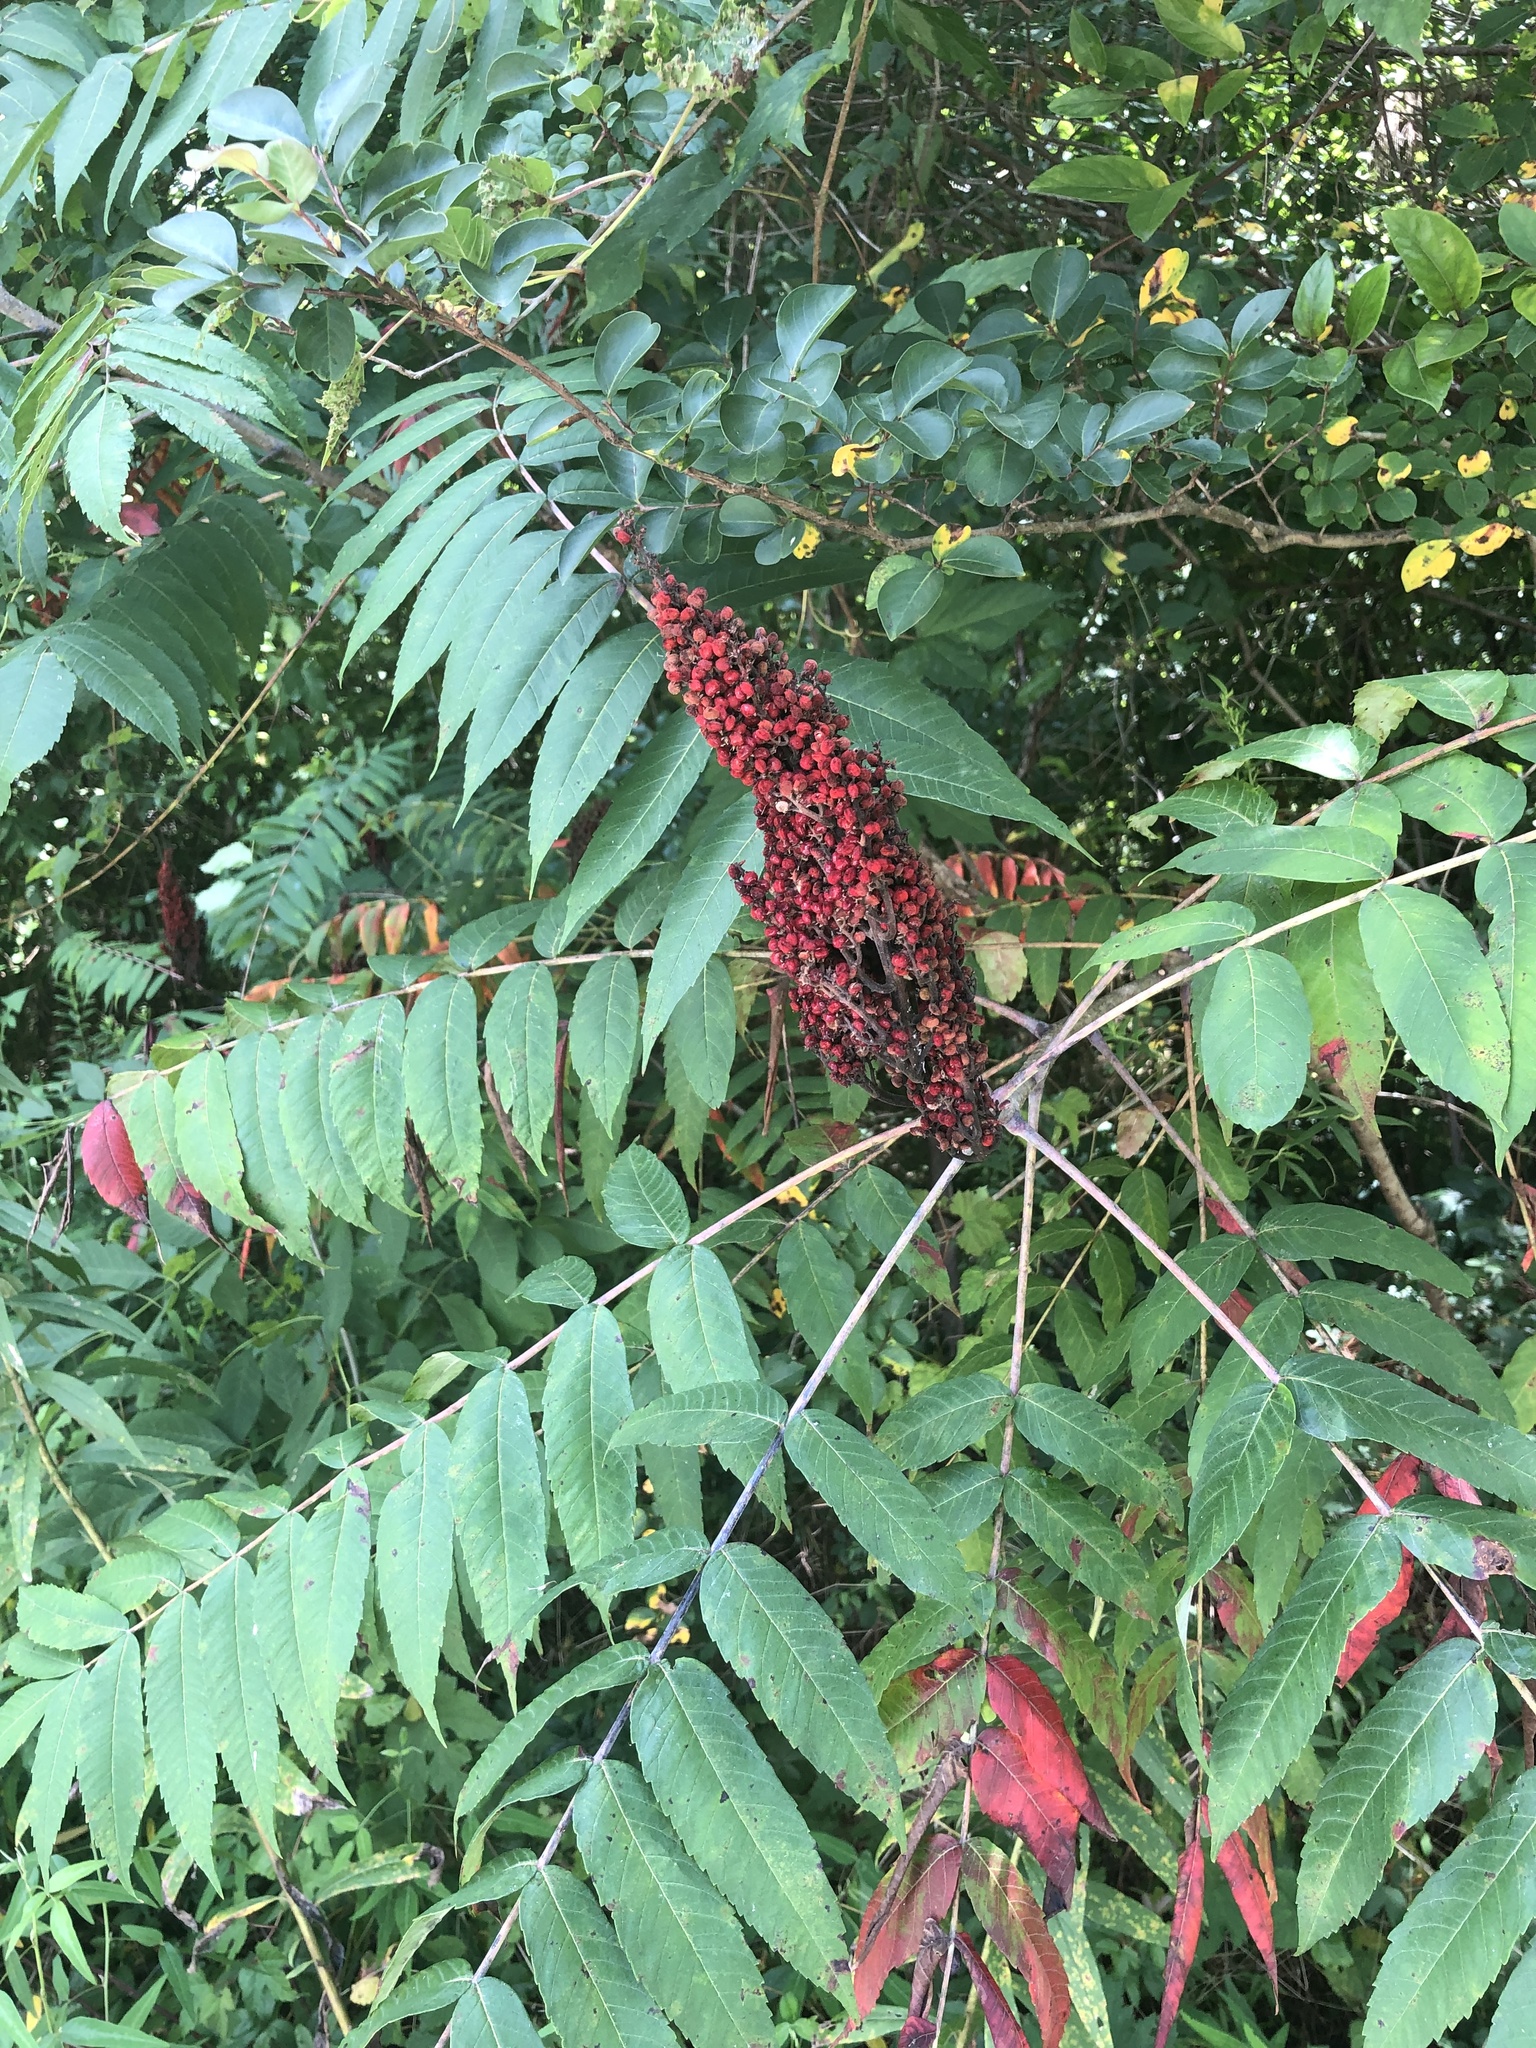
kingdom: Plantae
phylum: Tracheophyta
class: Magnoliopsida
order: Sapindales
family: Anacardiaceae
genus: Rhus
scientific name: Rhus glabra
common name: Scarlet sumac
